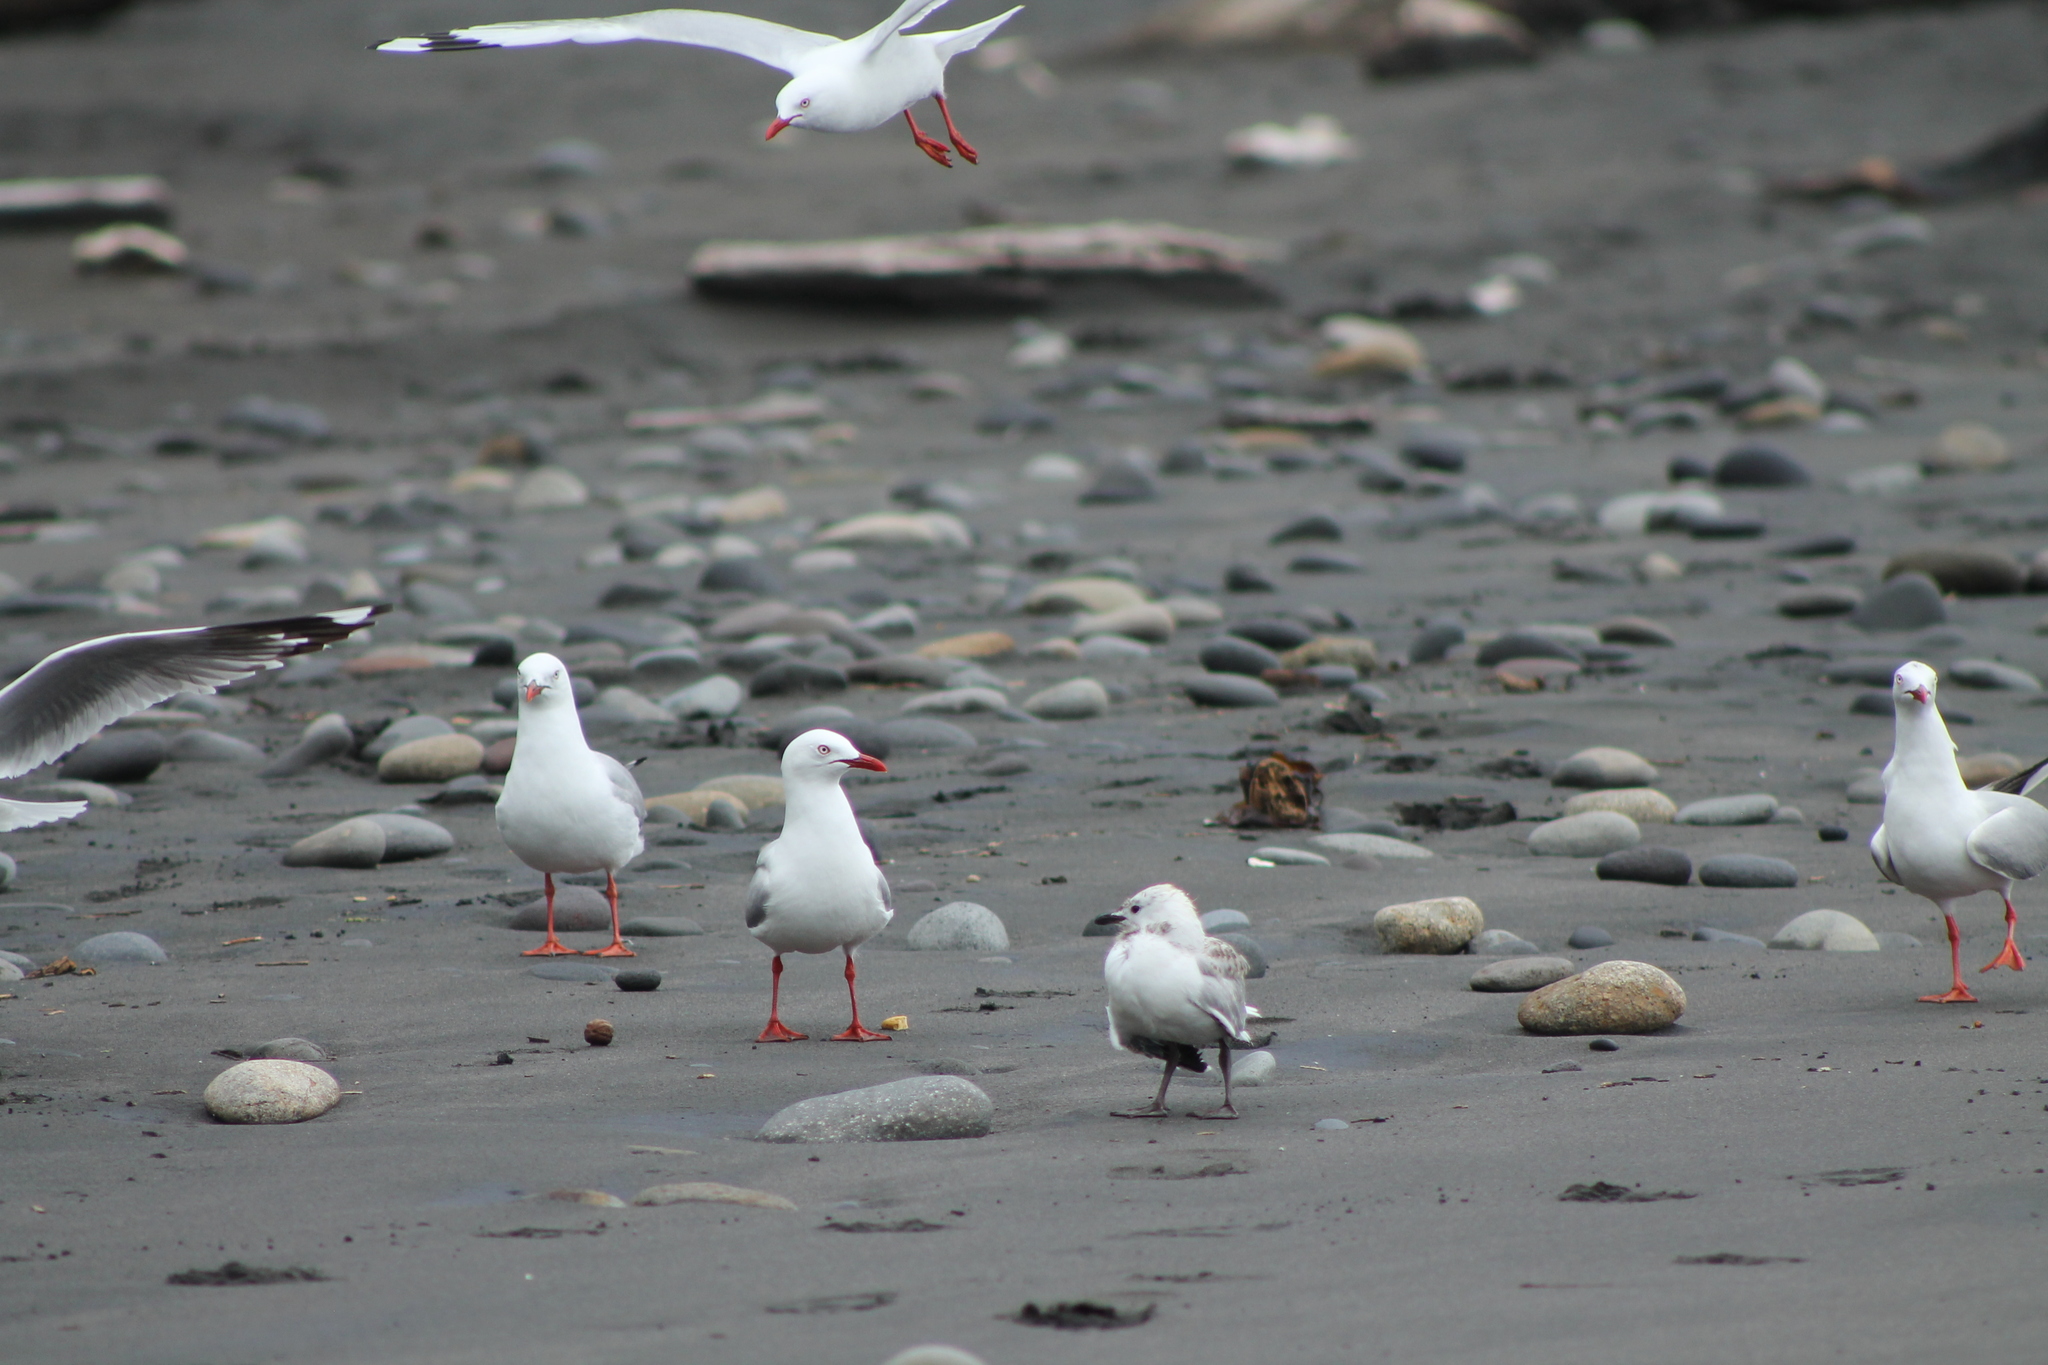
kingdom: Animalia
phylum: Chordata
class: Aves
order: Charadriiformes
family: Laridae
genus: Chroicocephalus
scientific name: Chroicocephalus novaehollandiae
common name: Silver gull
